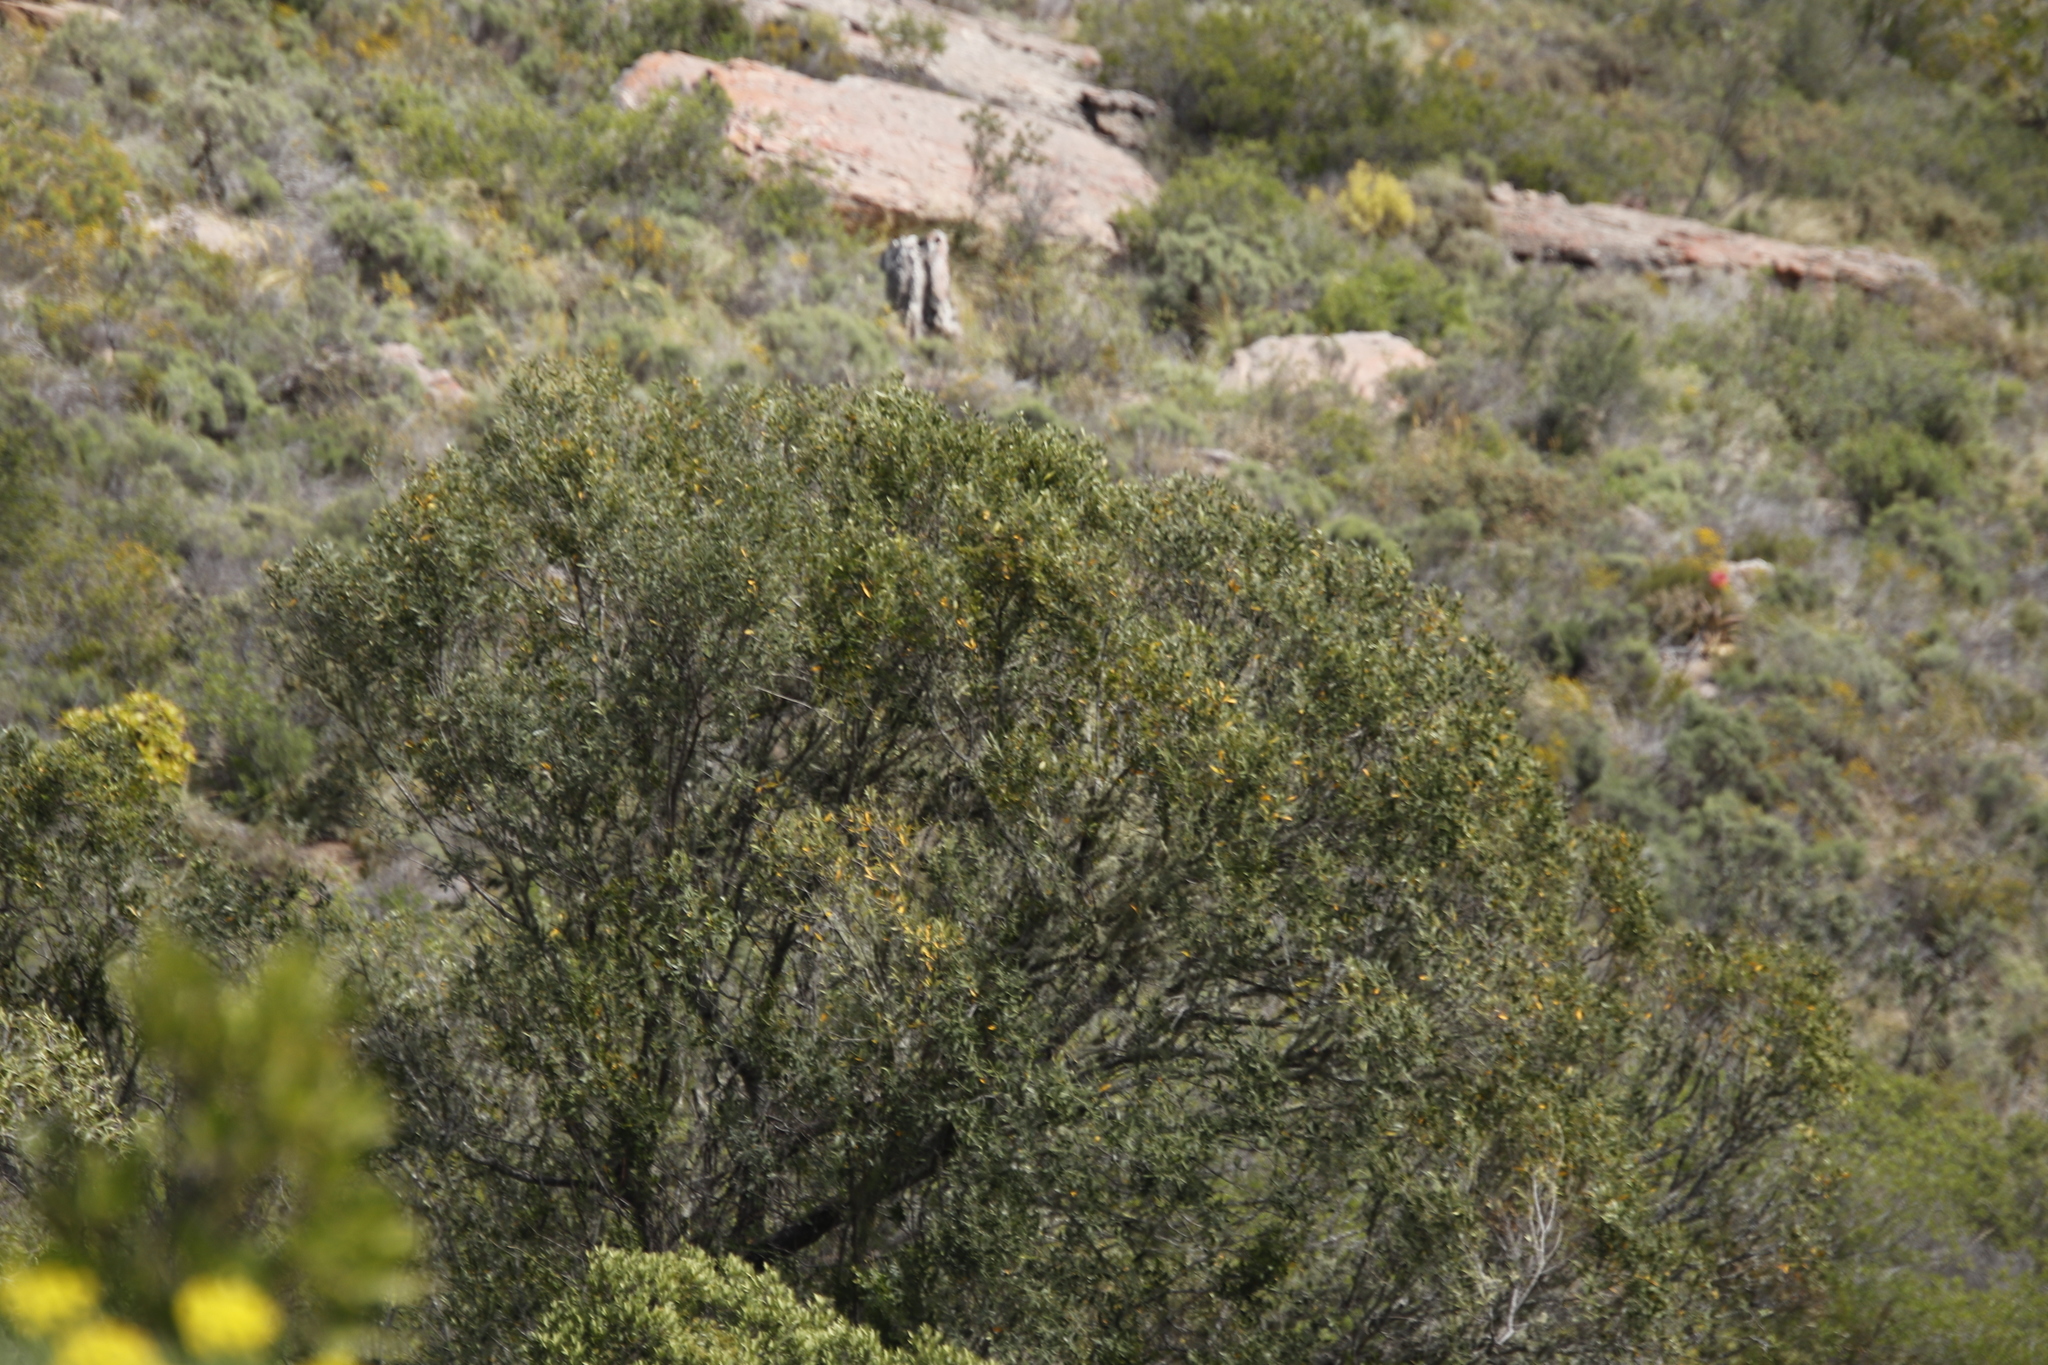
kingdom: Plantae
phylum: Tracheophyta
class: Magnoliopsida
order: Lamiales
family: Oleaceae
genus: Olea
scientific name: Olea europaea
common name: Olive
